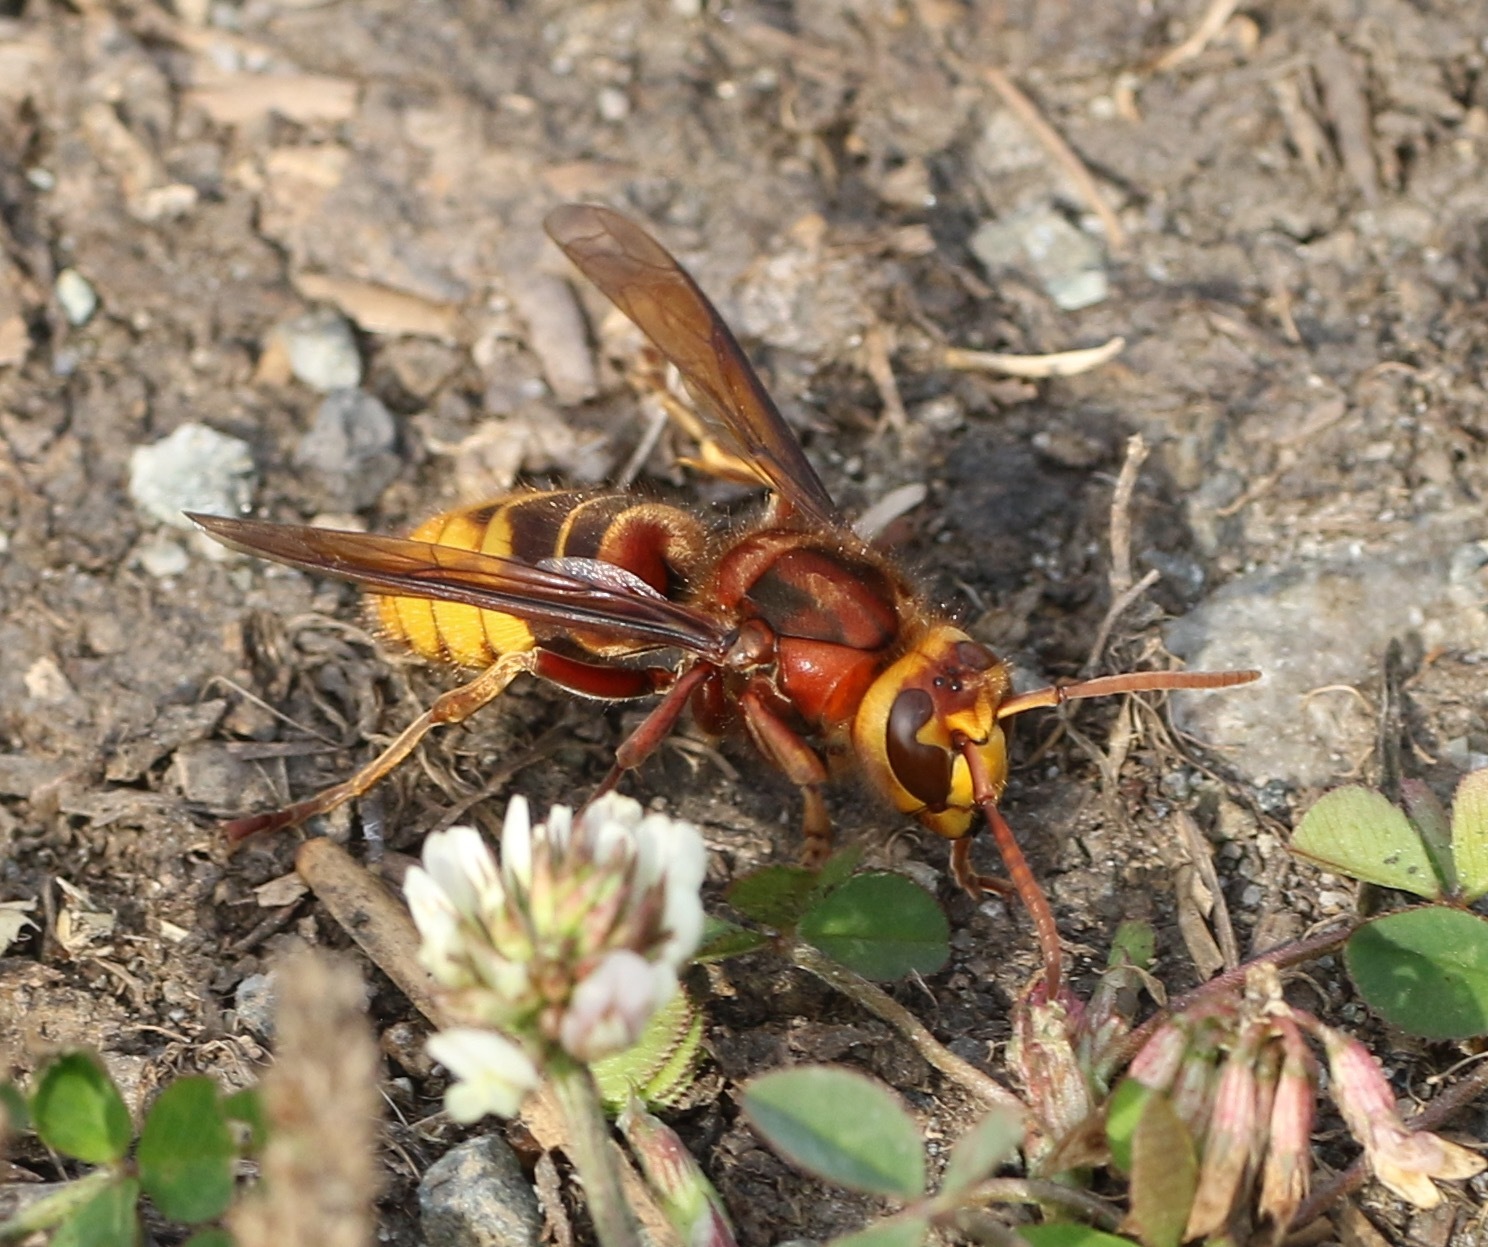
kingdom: Animalia
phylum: Arthropoda
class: Insecta
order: Hymenoptera
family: Vespidae
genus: Vespa
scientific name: Vespa crabro
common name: Hornet
